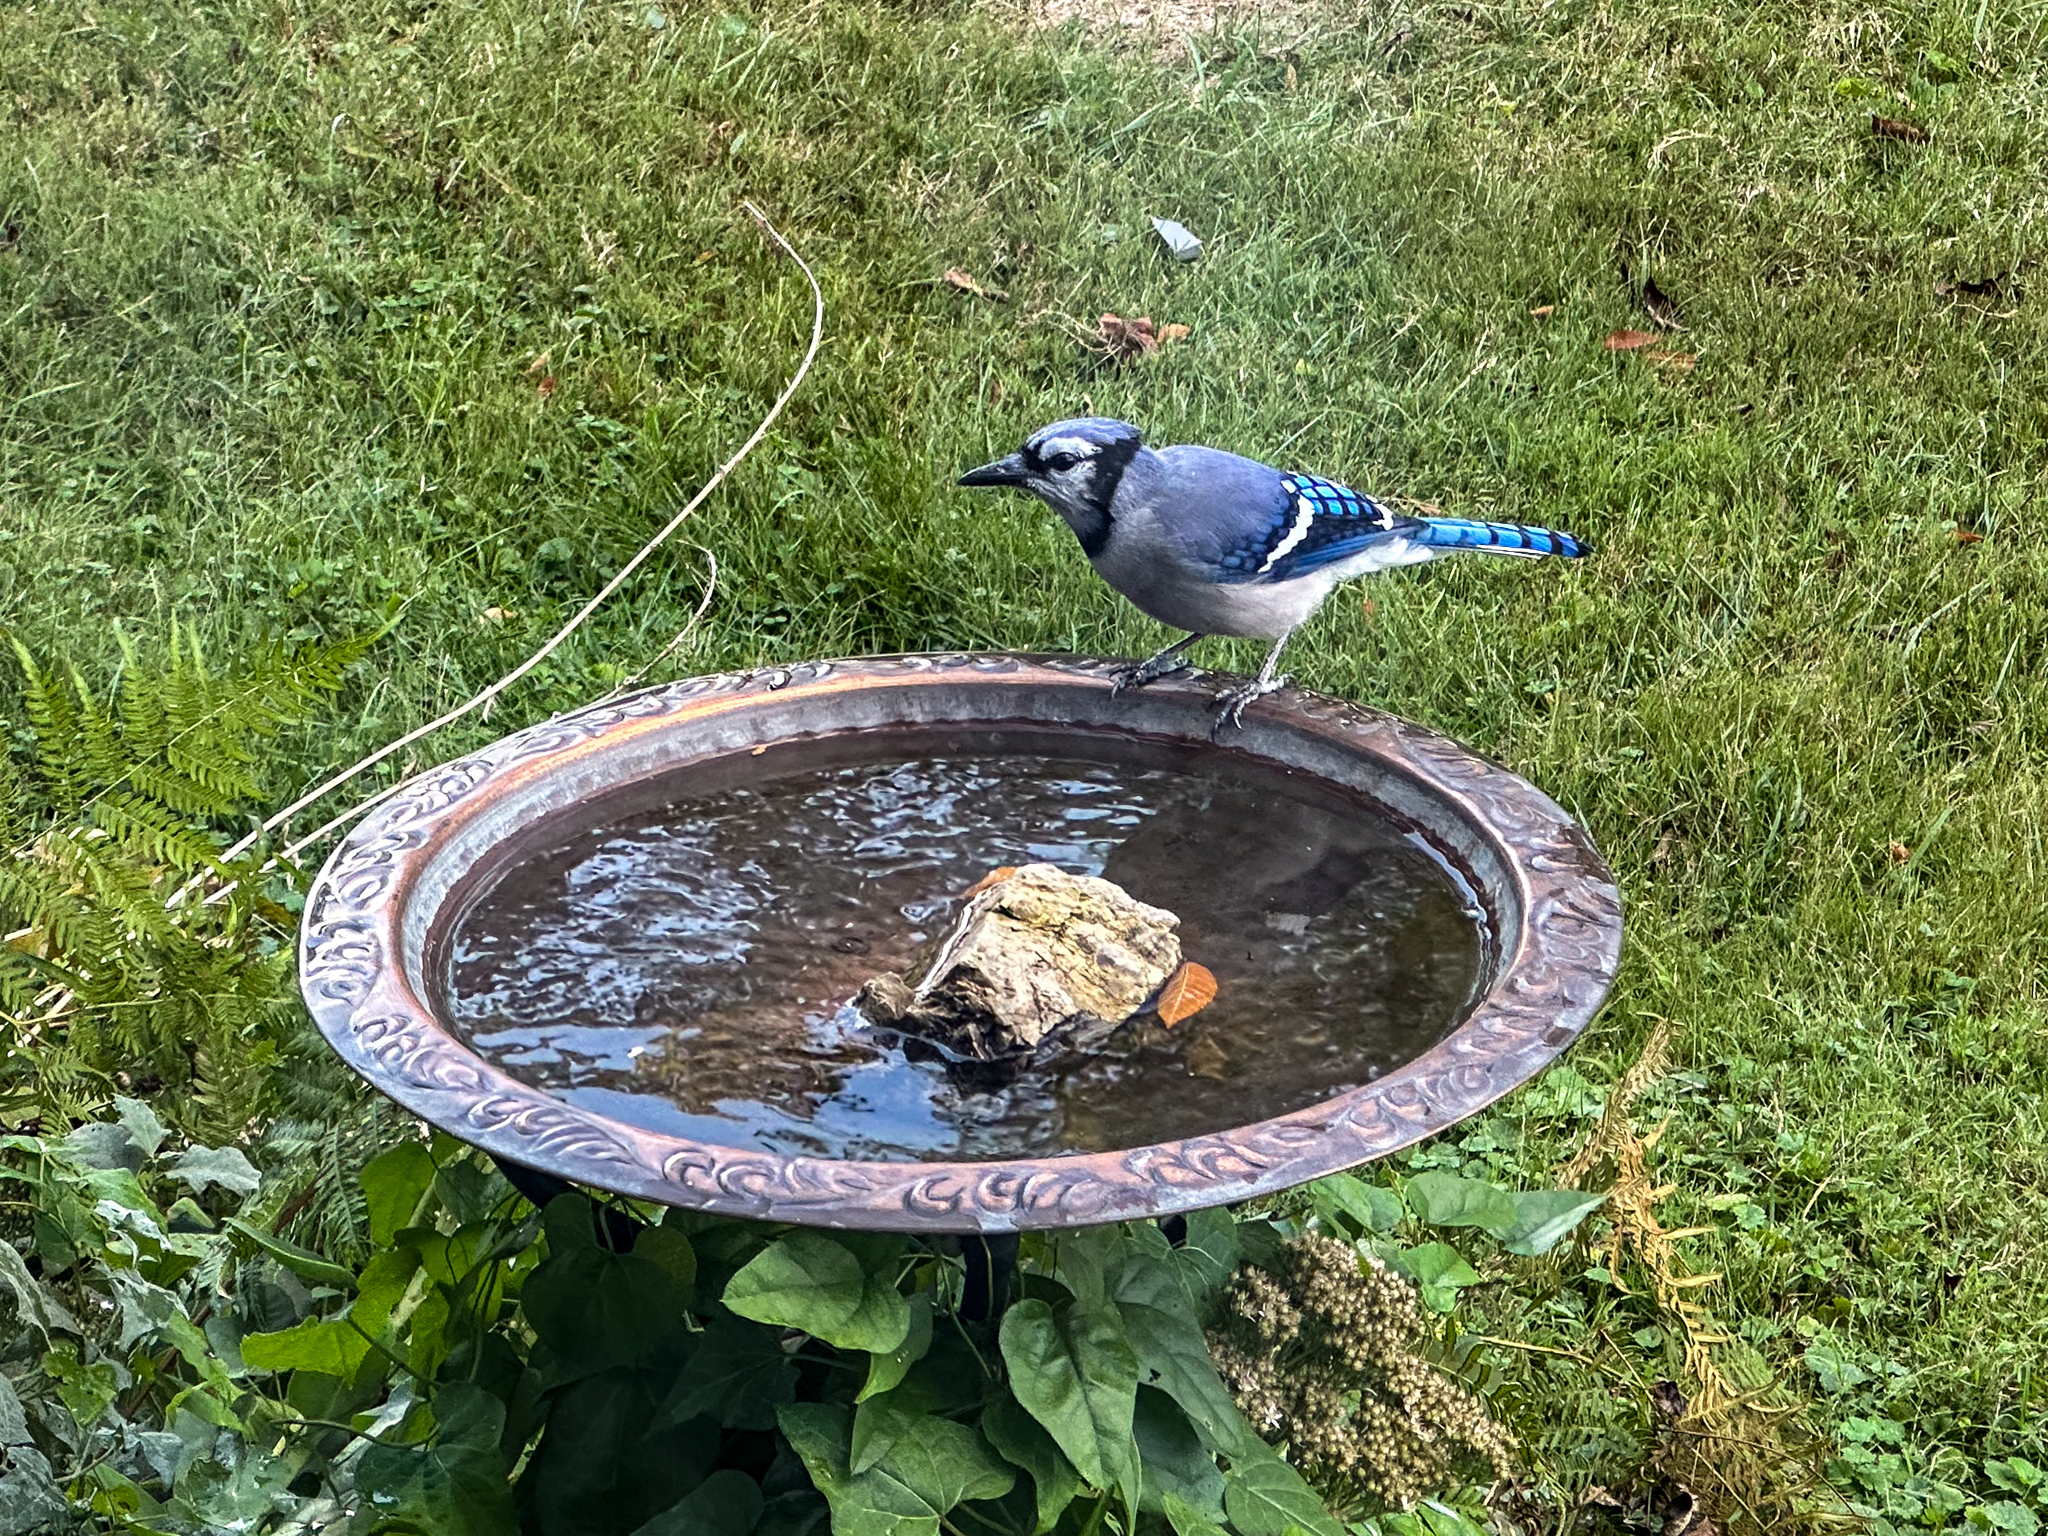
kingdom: Animalia
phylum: Chordata
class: Aves
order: Passeriformes
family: Corvidae
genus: Cyanocitta
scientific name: Cyanocitta cristata
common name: Blue jay
